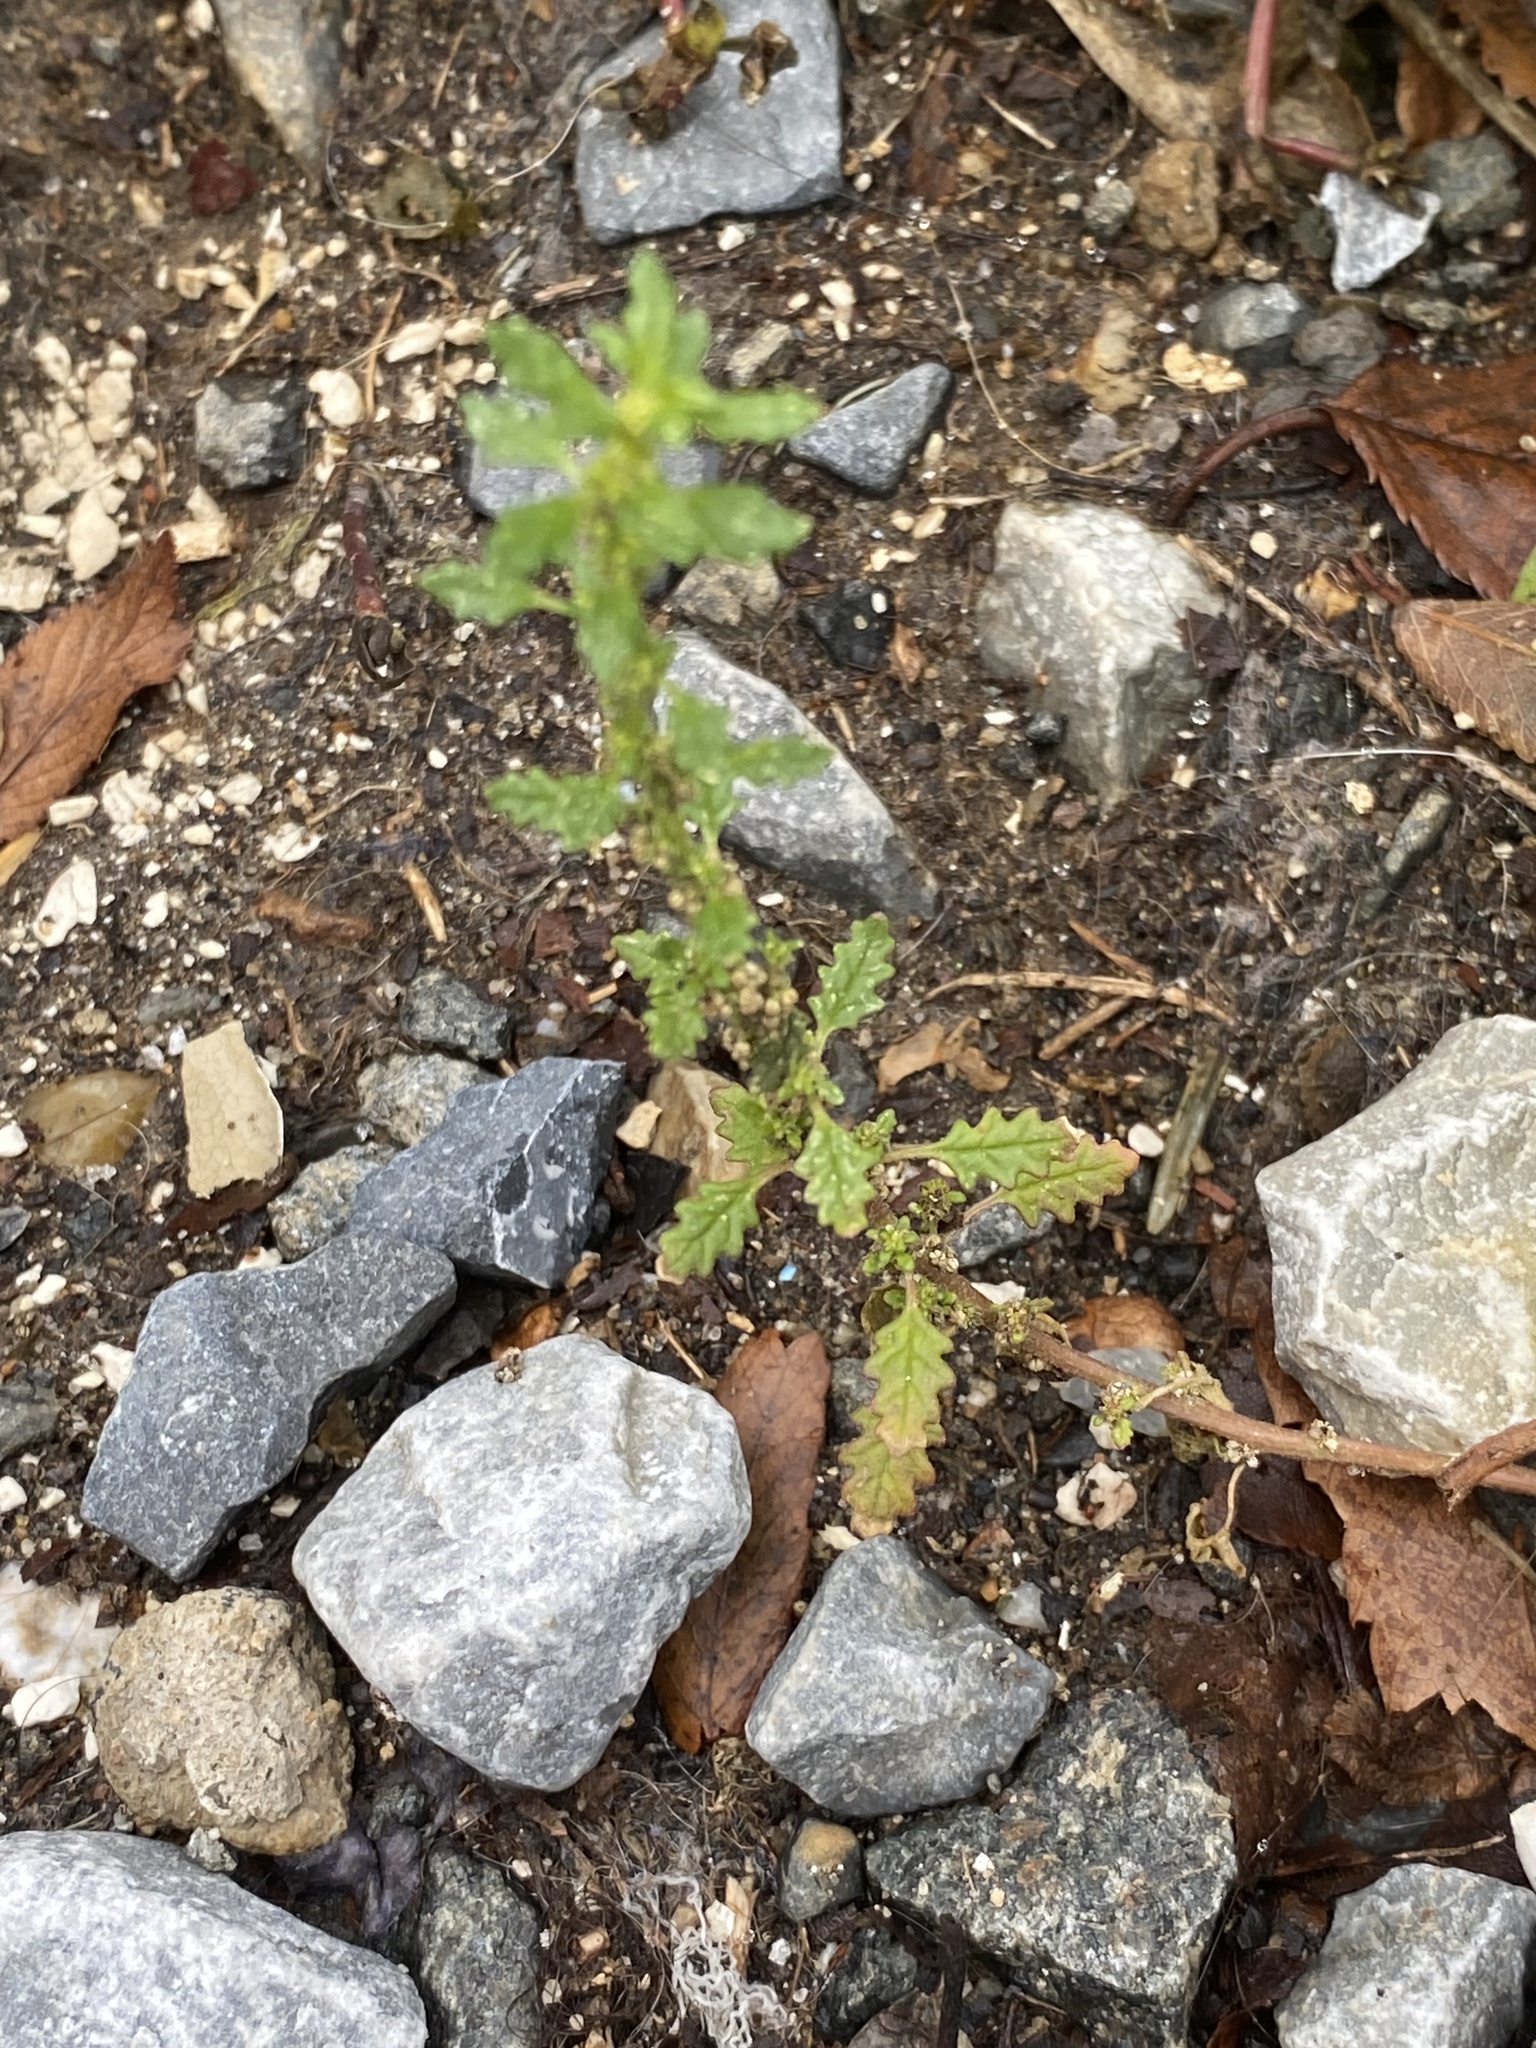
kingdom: Plantae
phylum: Tracheophyta
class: Magnoliopsida
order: Caryophyllales
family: Amaranthaceae
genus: Dysphania
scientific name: Dysphania pumilio
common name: Clammy goosefoot
